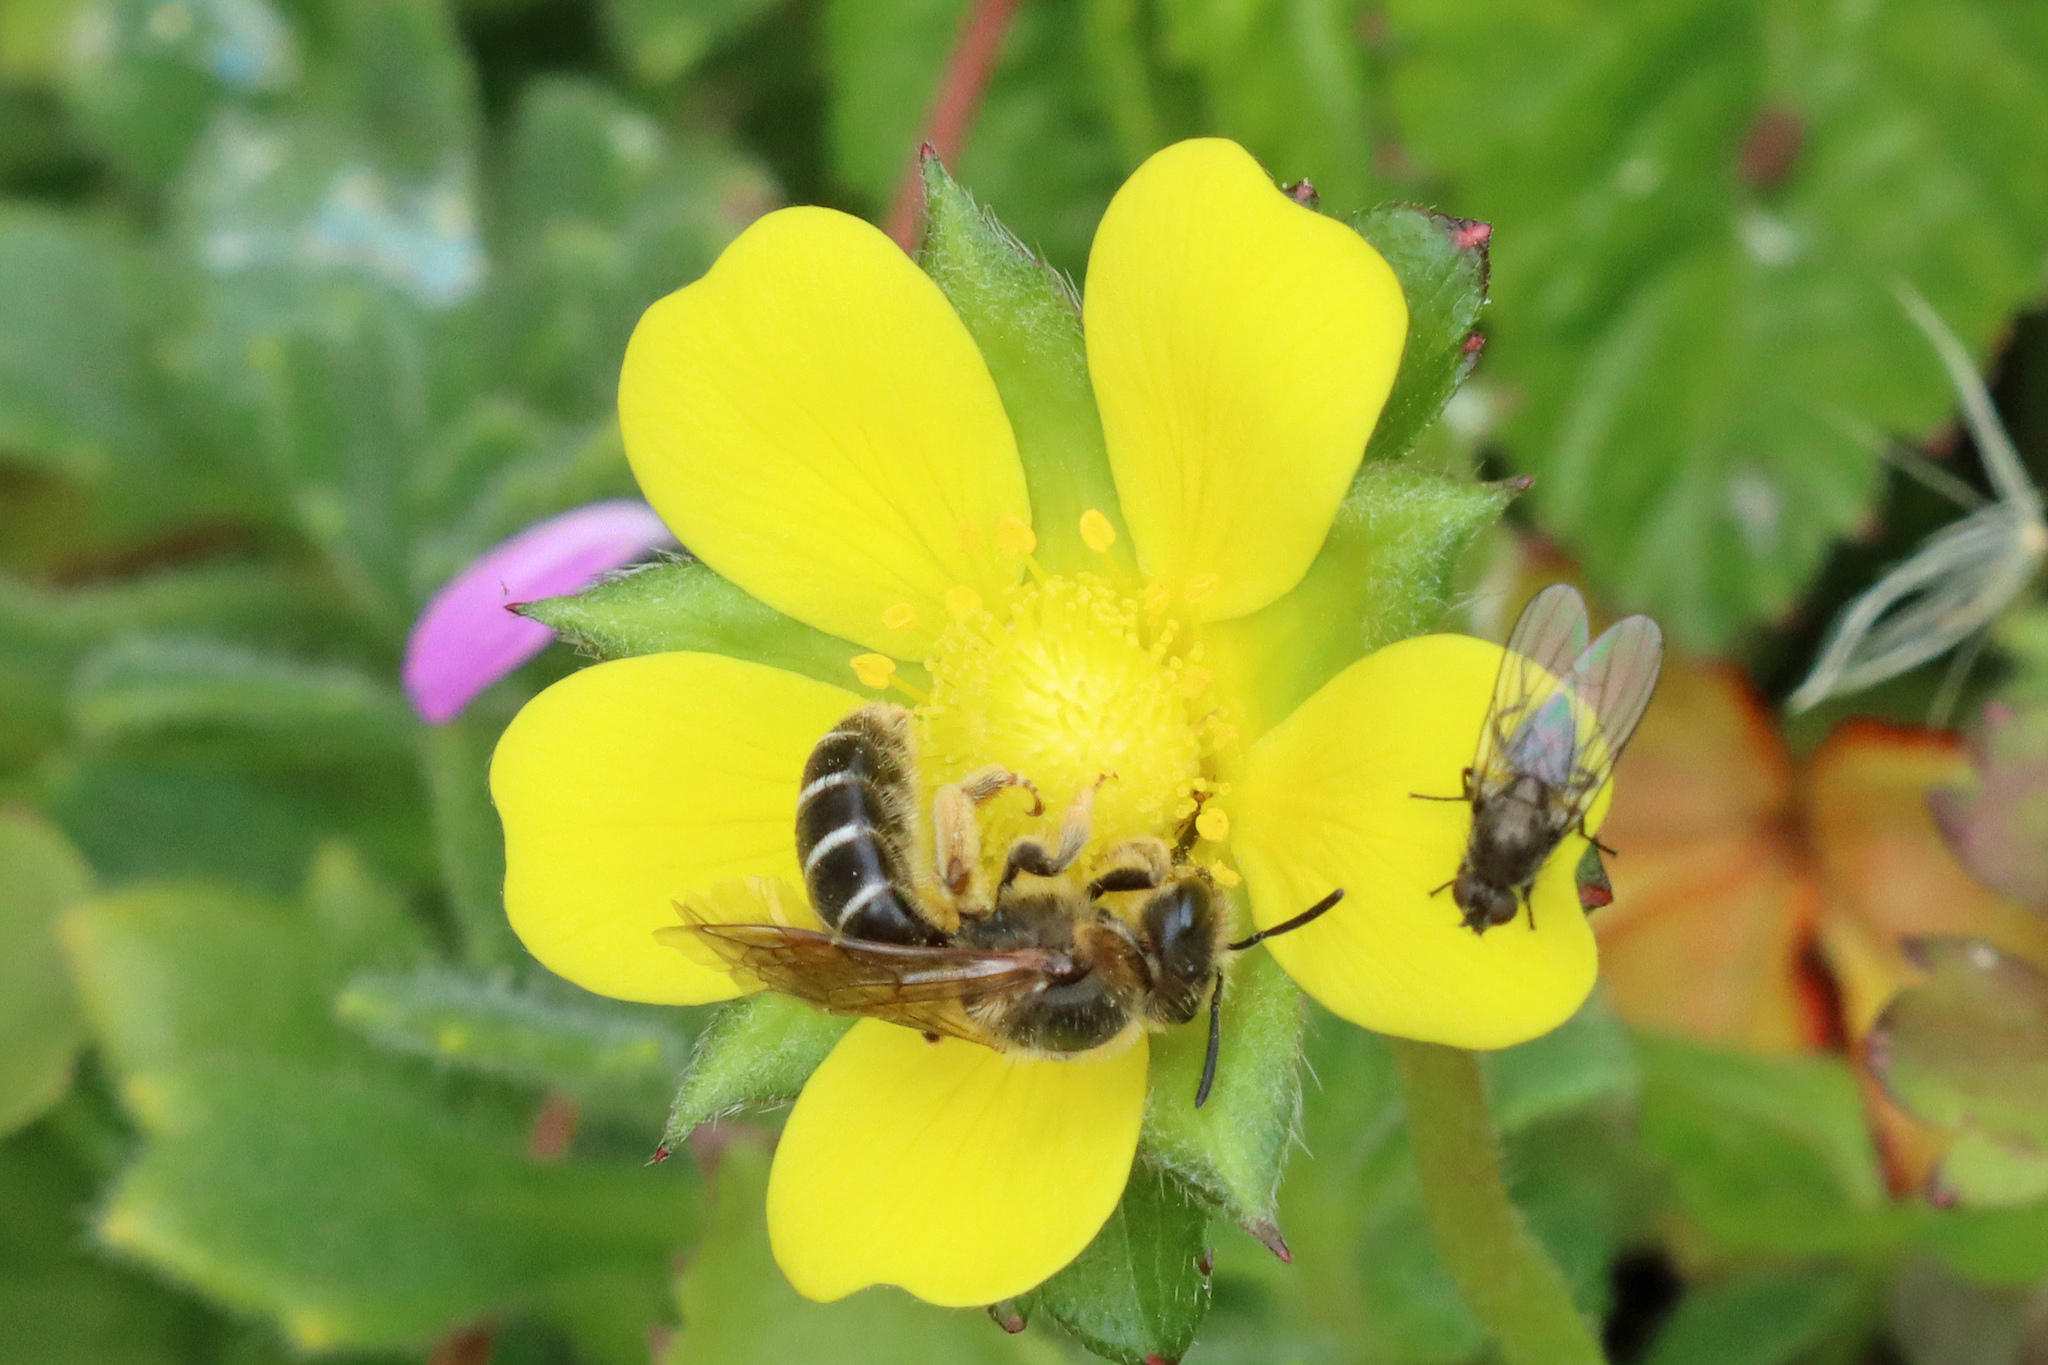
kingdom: Animalia
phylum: Arthropoda
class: Insecta
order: Hymenoptera
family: Halictidae
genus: Halictus
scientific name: Halictus rubicundus
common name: Orange-legged furrow bee
